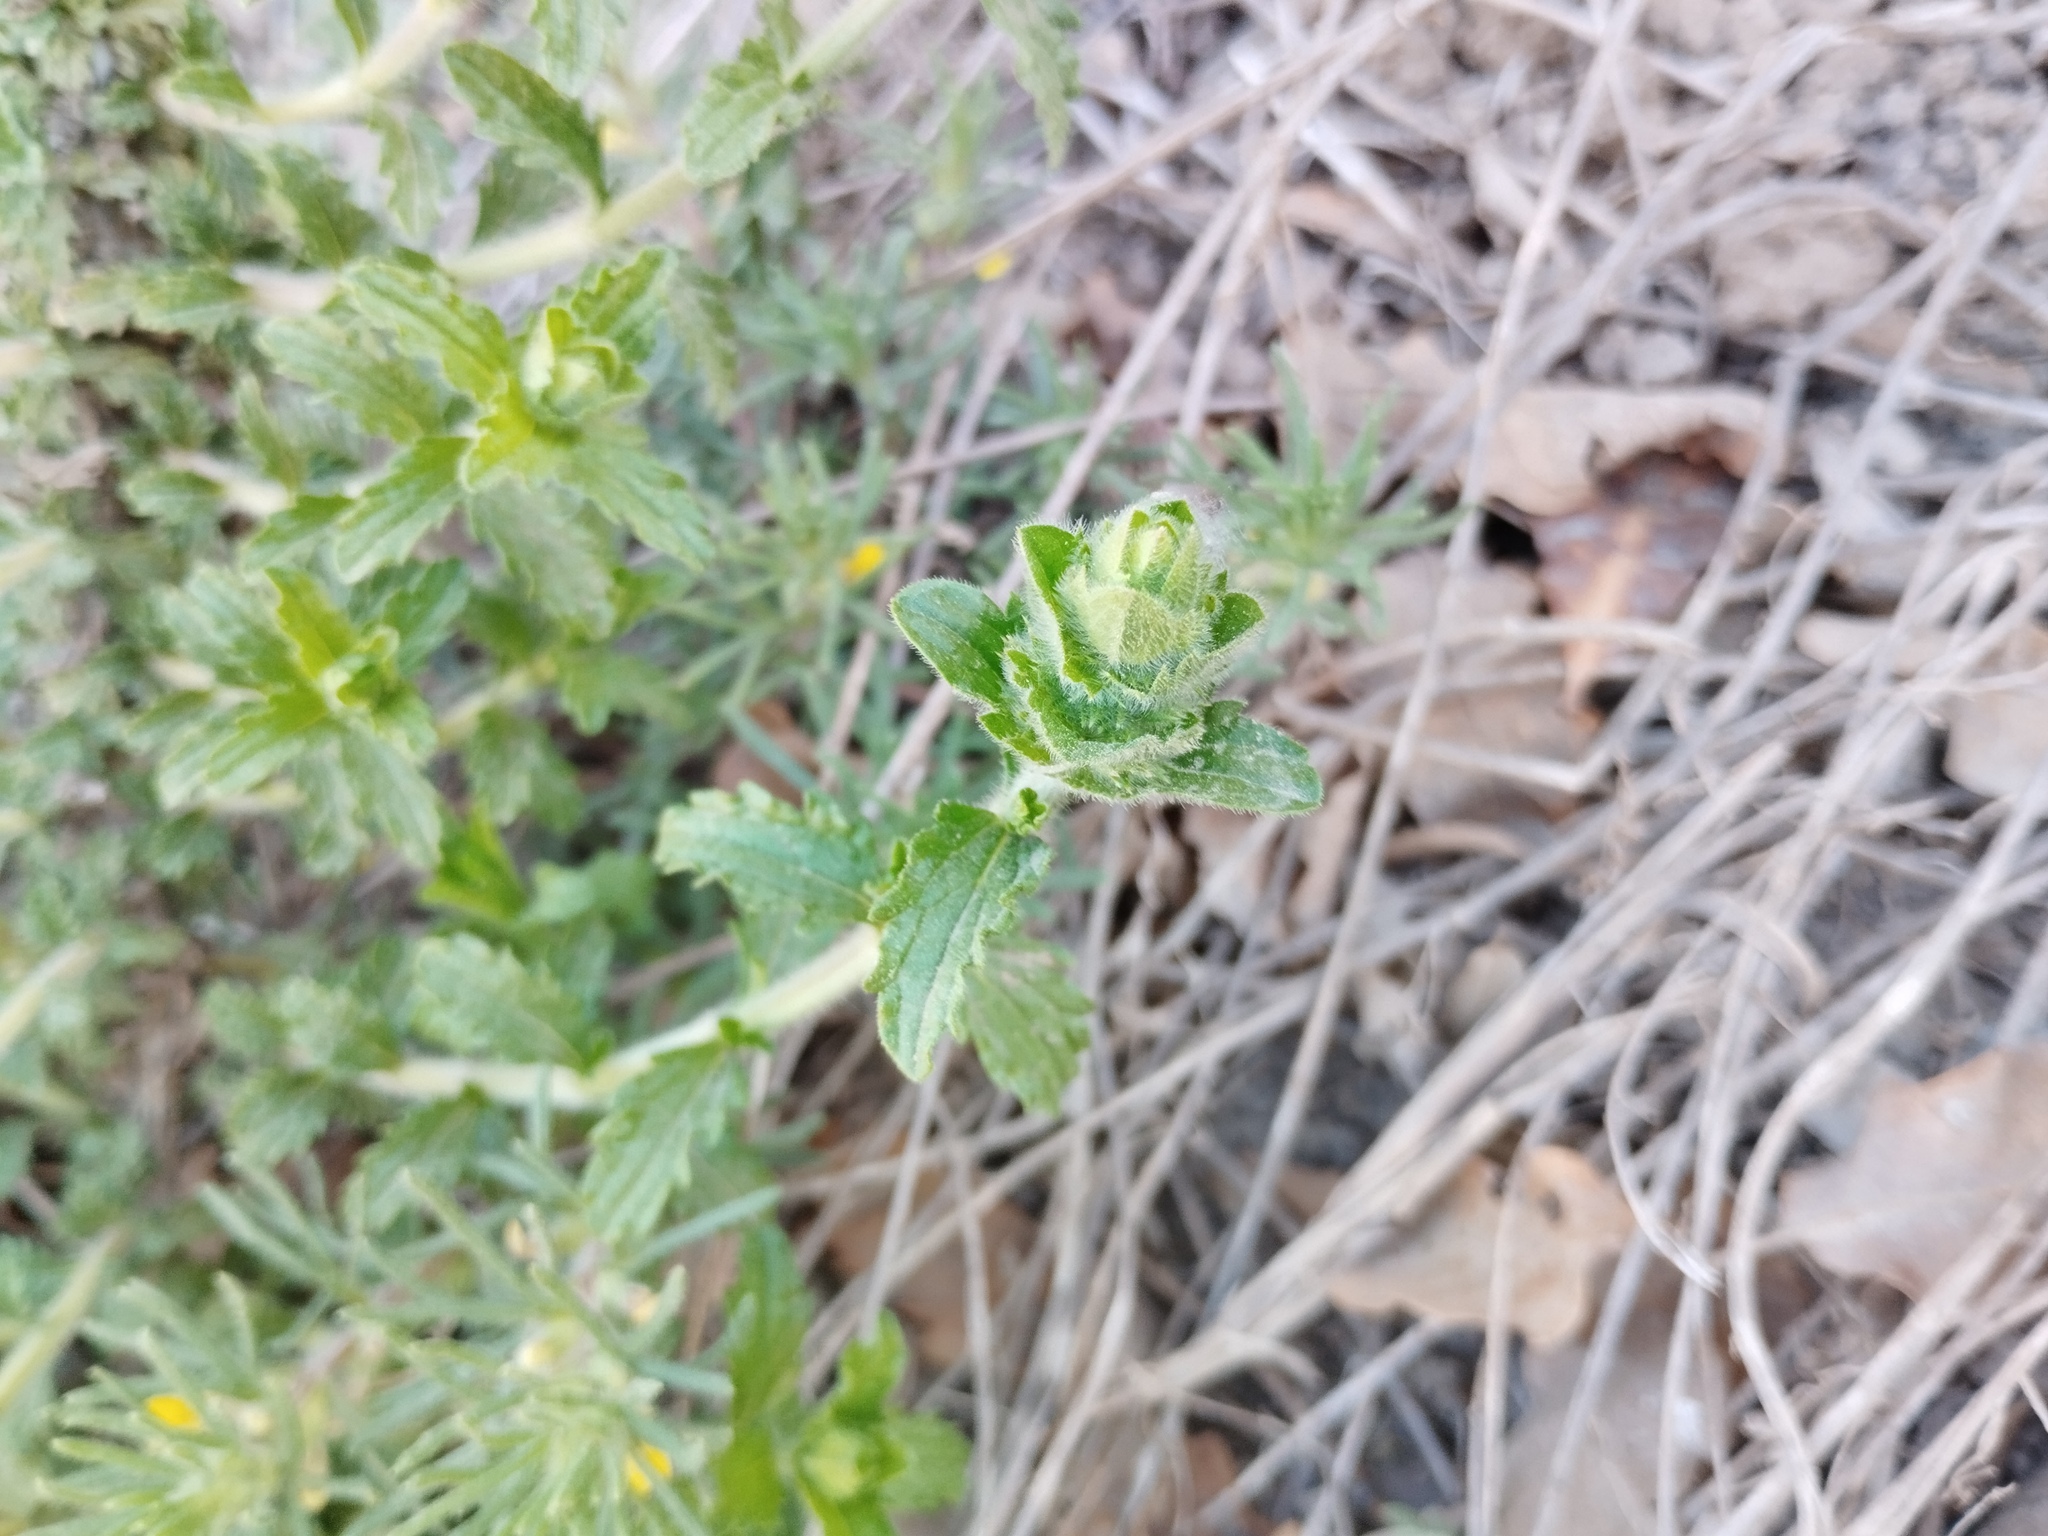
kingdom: Plantae
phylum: Tracheophyta
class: Magnoliopsida
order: Lamiales
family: Lamiaceae
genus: Sideritis
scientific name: Sideritis hirsuta
